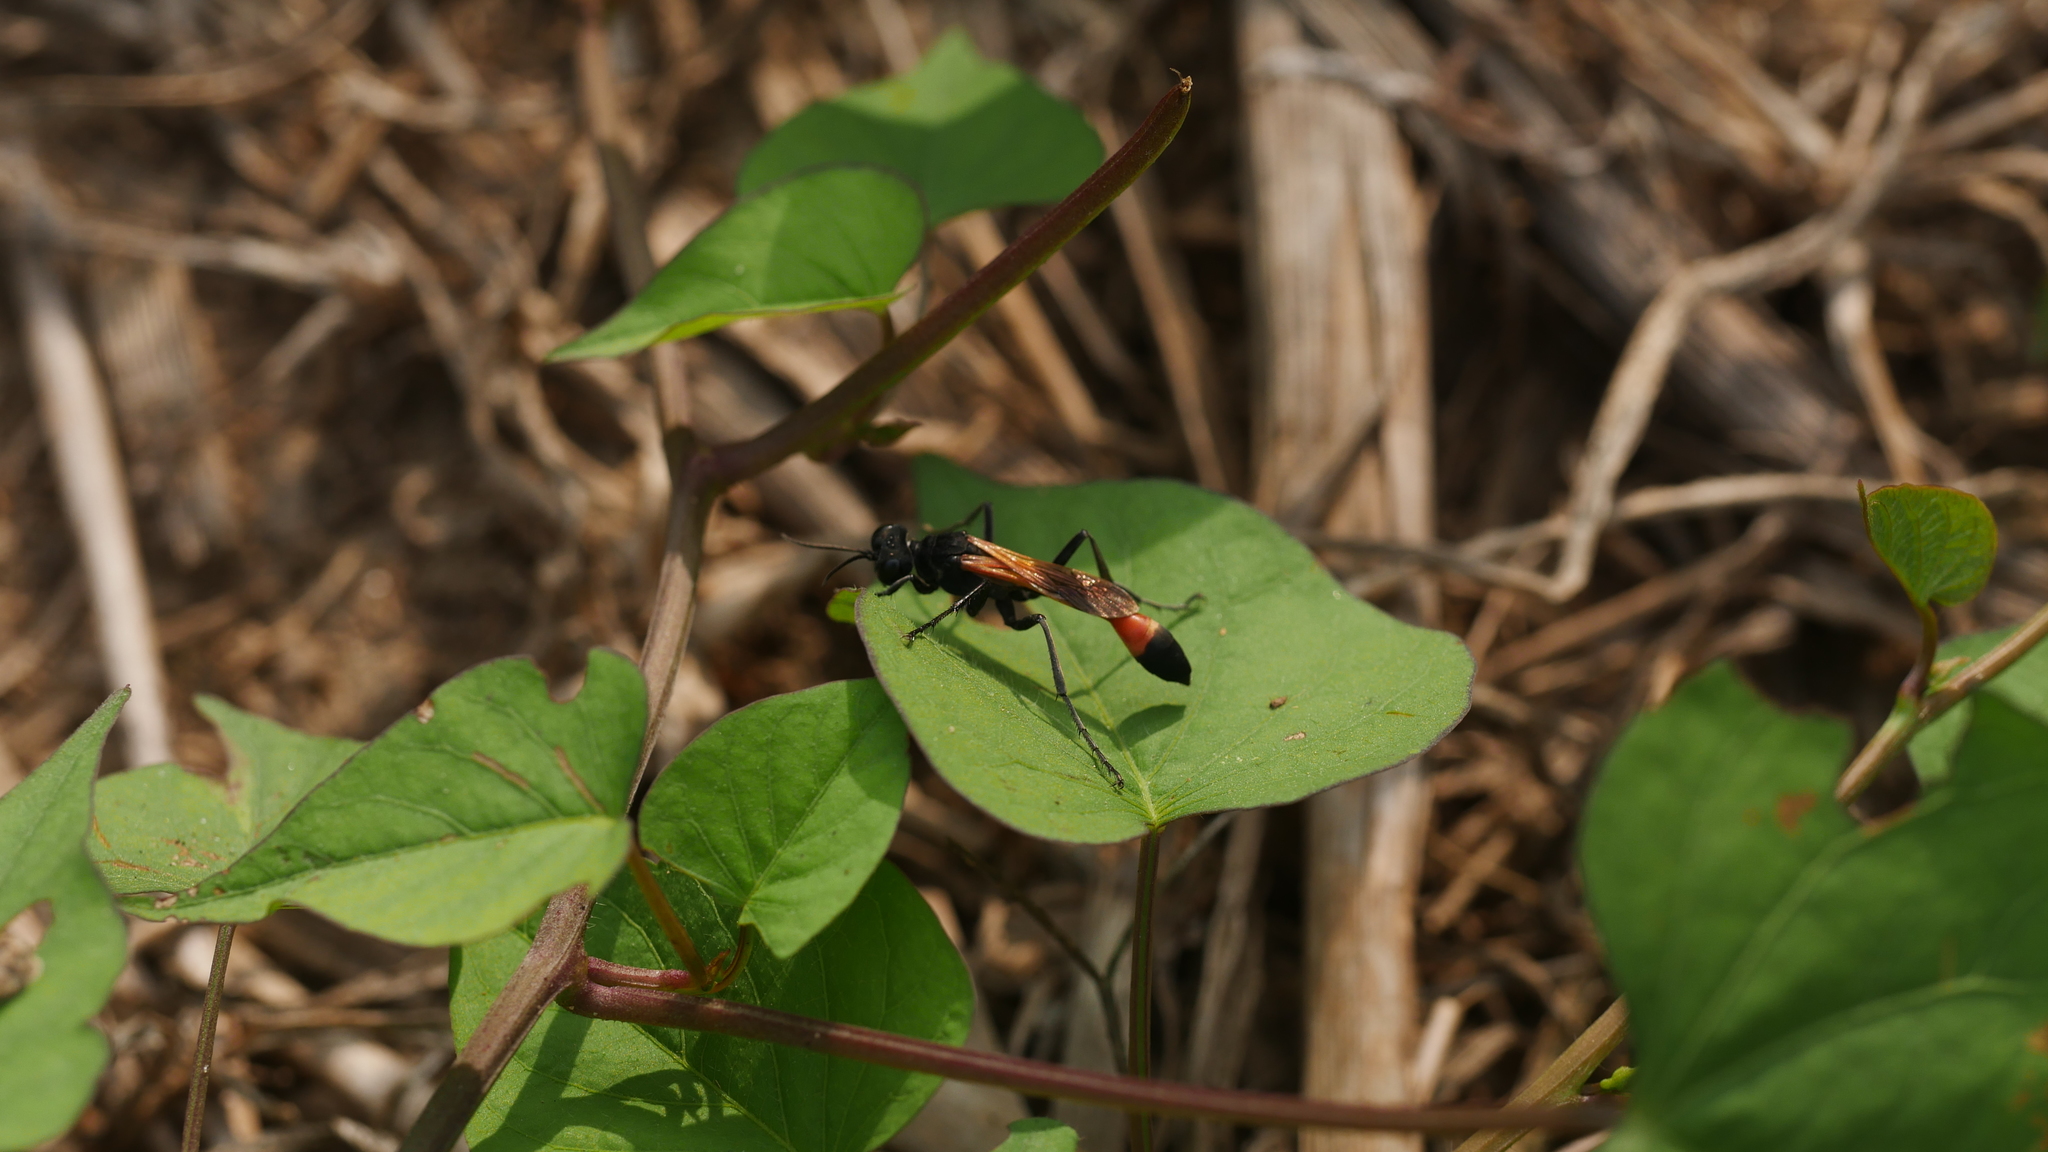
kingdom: Animalia
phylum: Arthropoda
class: Insecta
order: Hymenoptera
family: Sphecidae
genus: Ammophila
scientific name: Ammophila pictipennis
